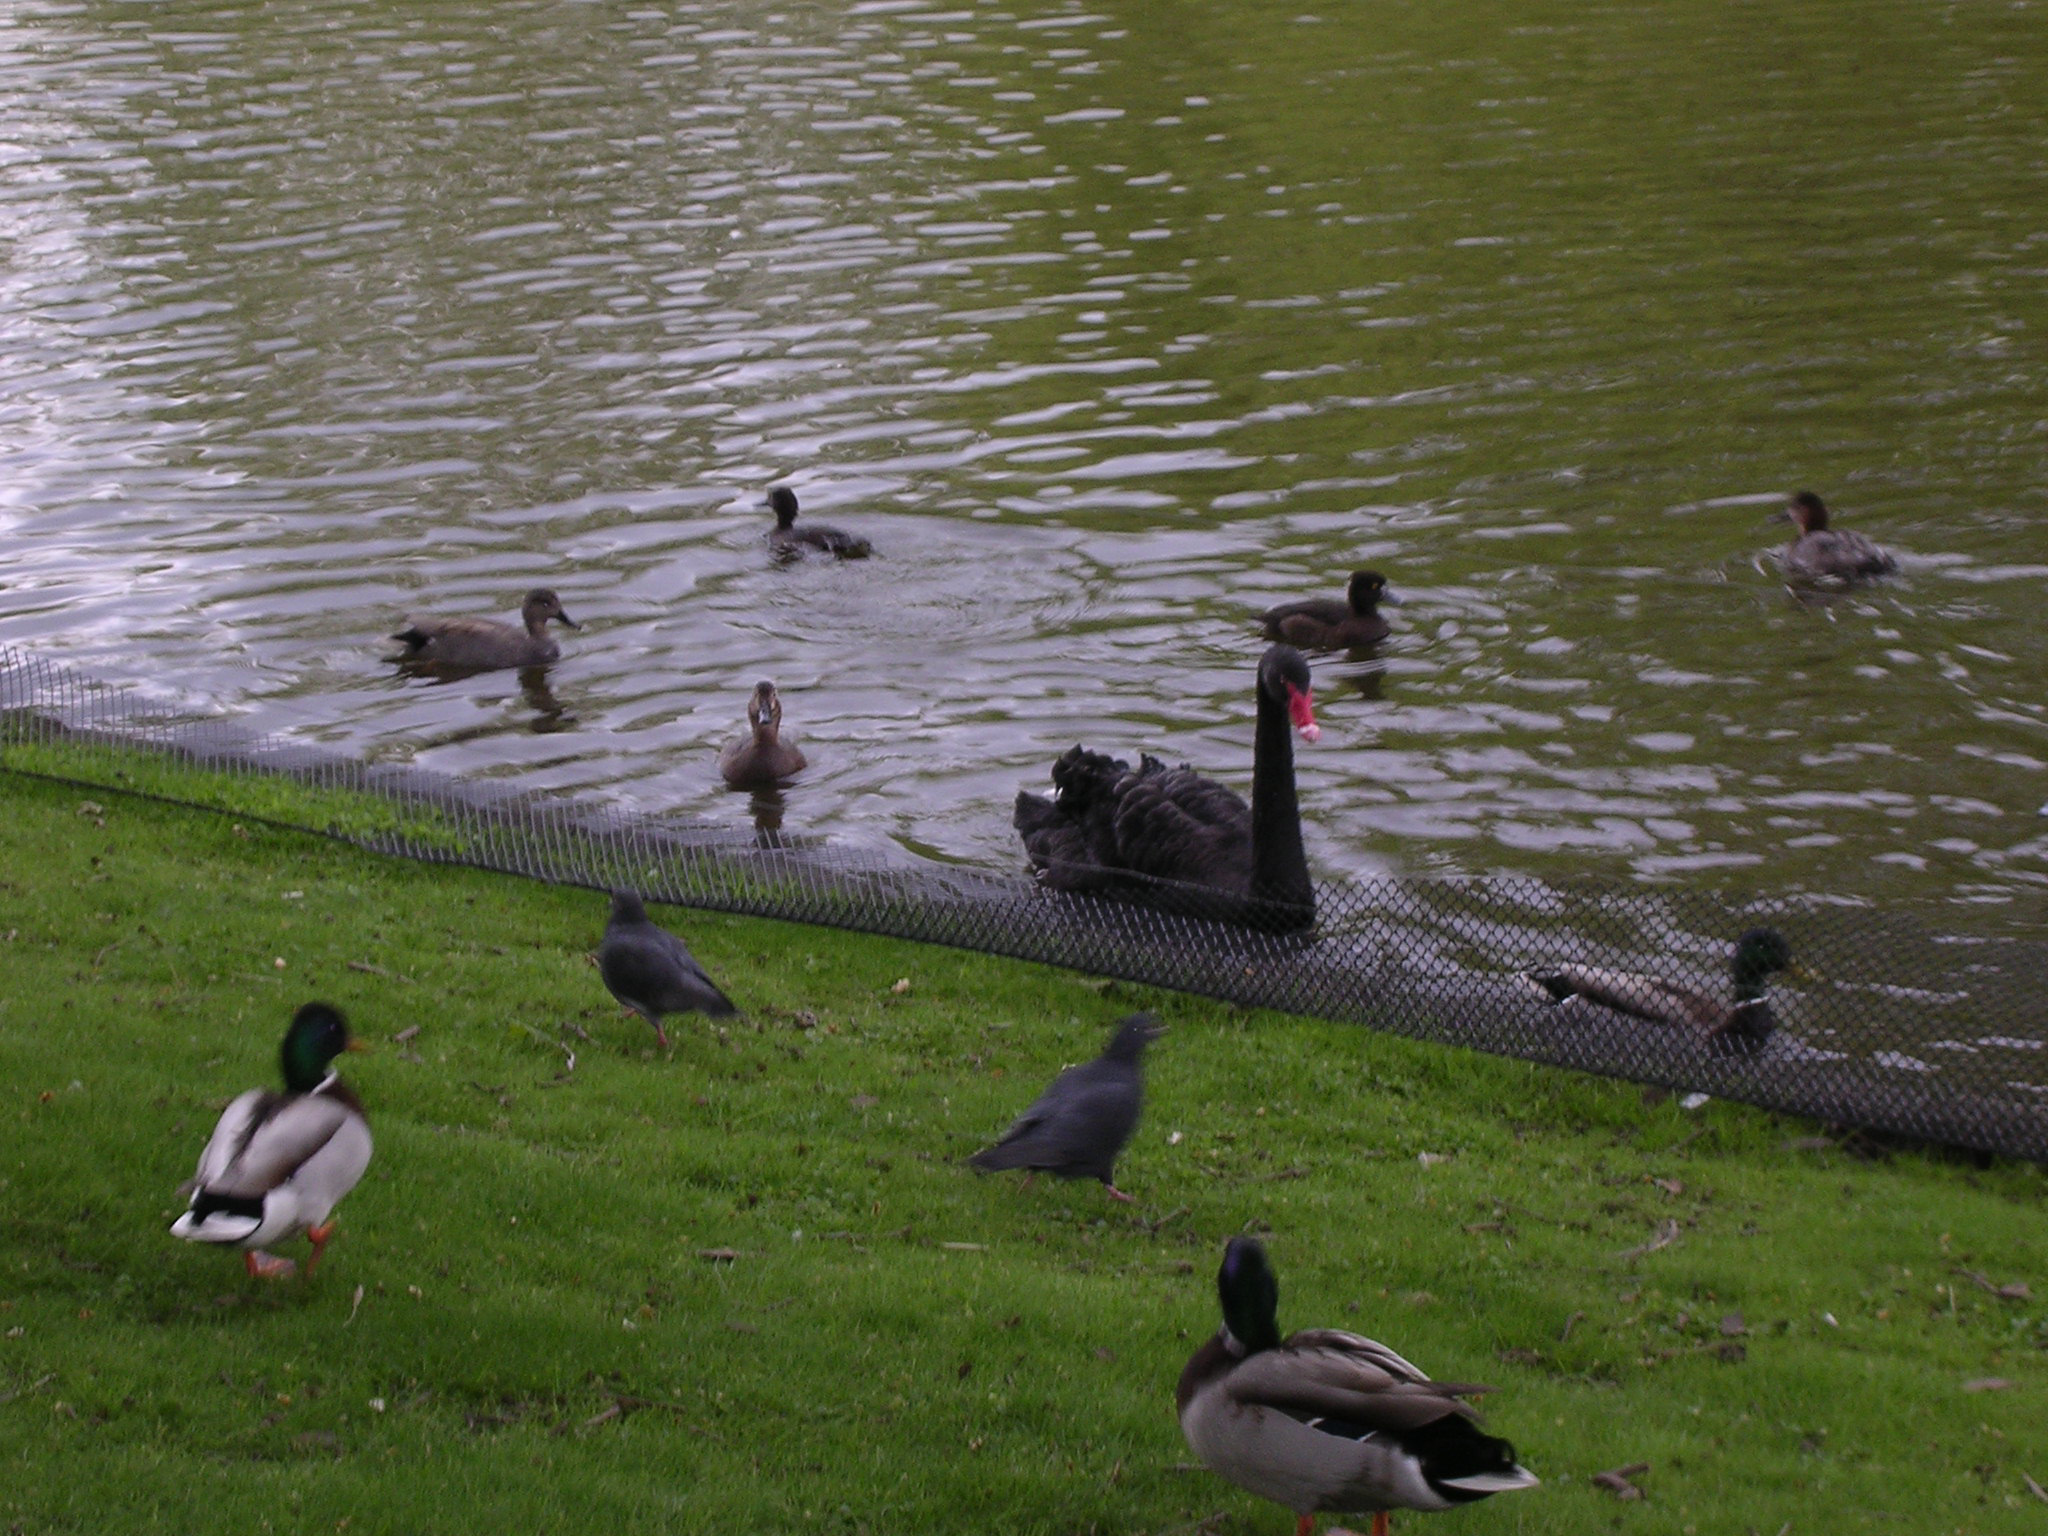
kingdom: Animalia
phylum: Chordata
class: Aves
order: Anseriformes
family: Anatidae
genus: Cygnus
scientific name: Cygnus atratus
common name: Black swan
